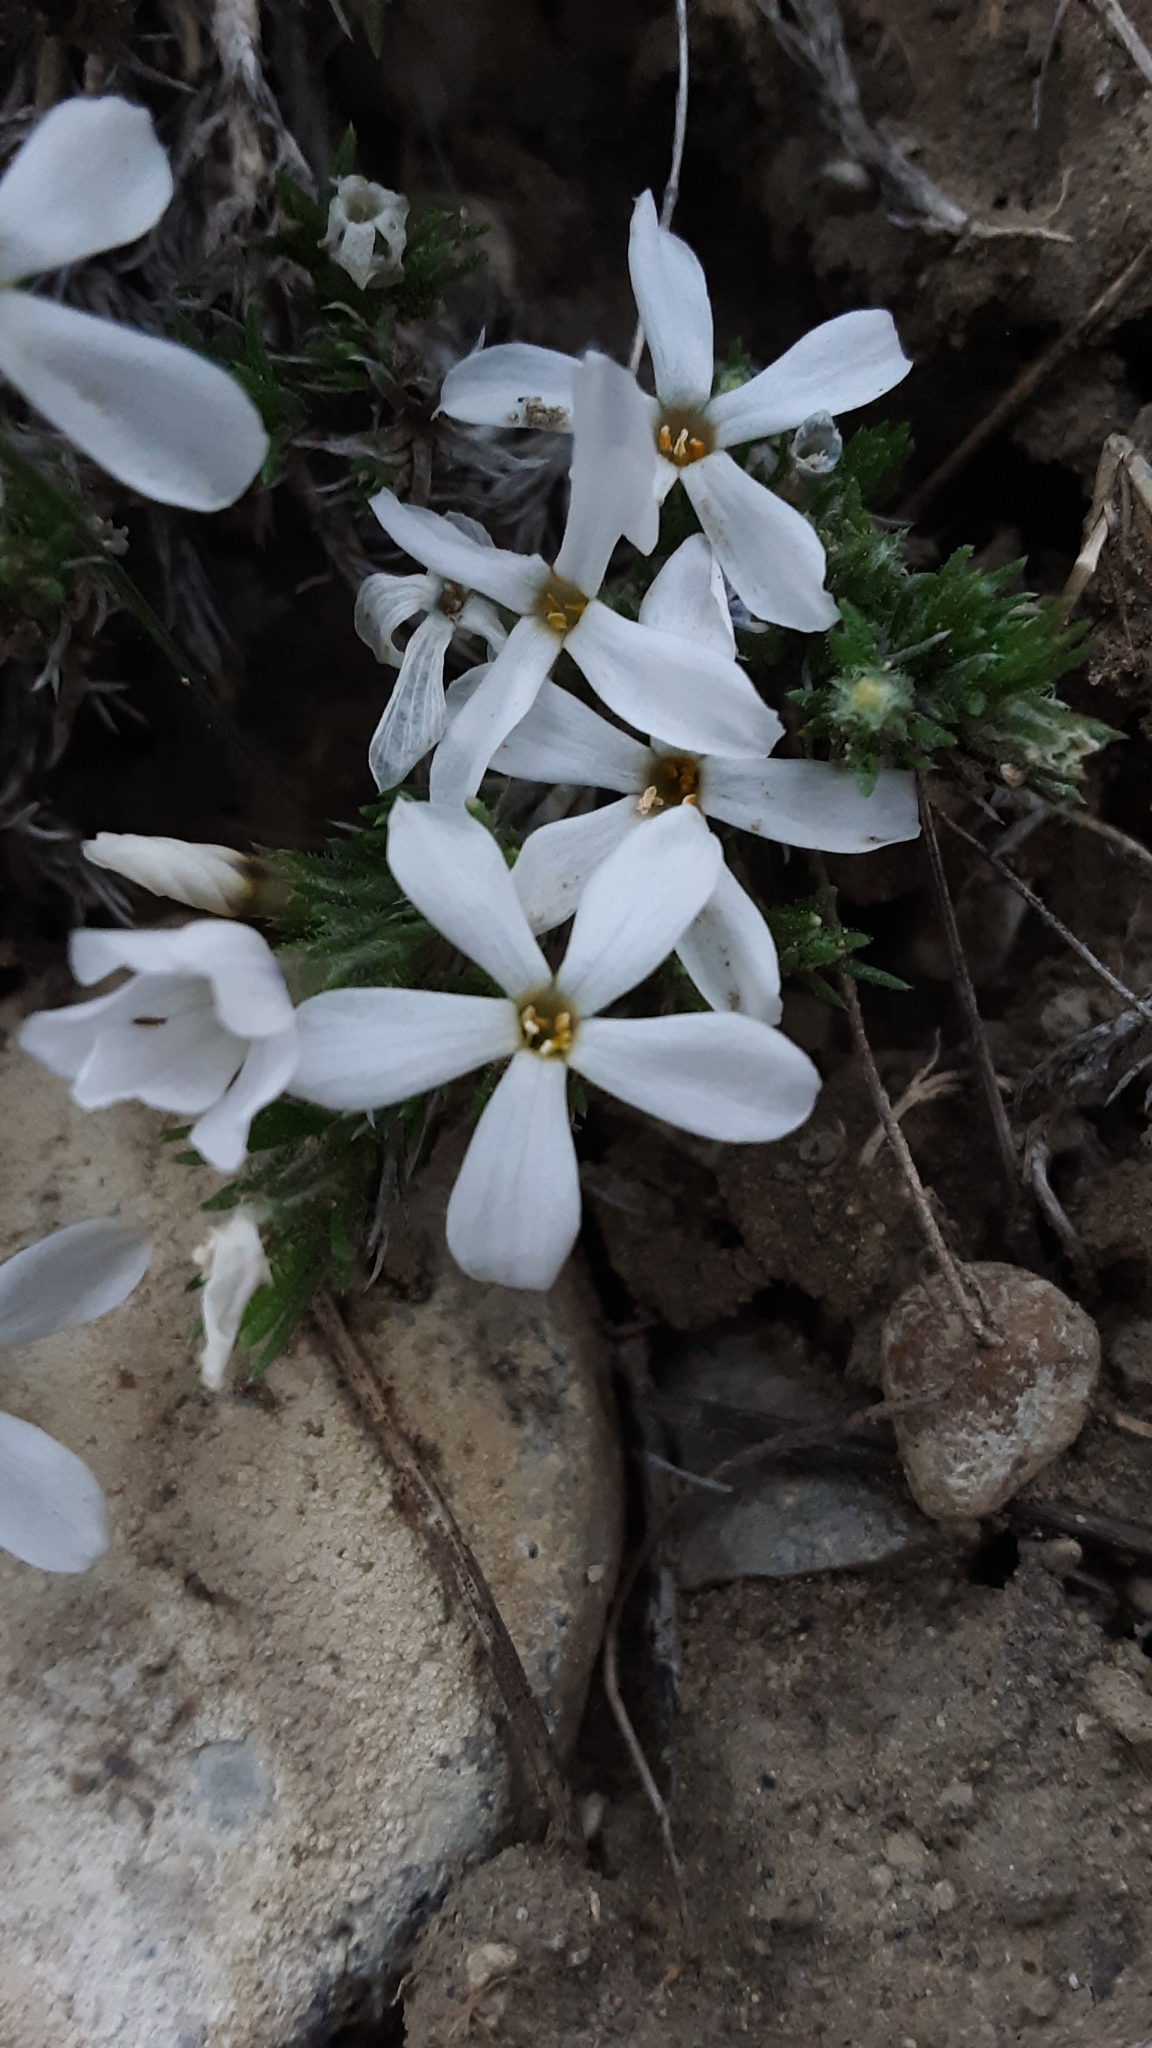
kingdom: Plantae
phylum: Tracheophyta
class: Magnoliopsida
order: Ericales
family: Polemoniaceae
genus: Phlox
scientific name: Phlox hoodii
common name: Moss phlox
